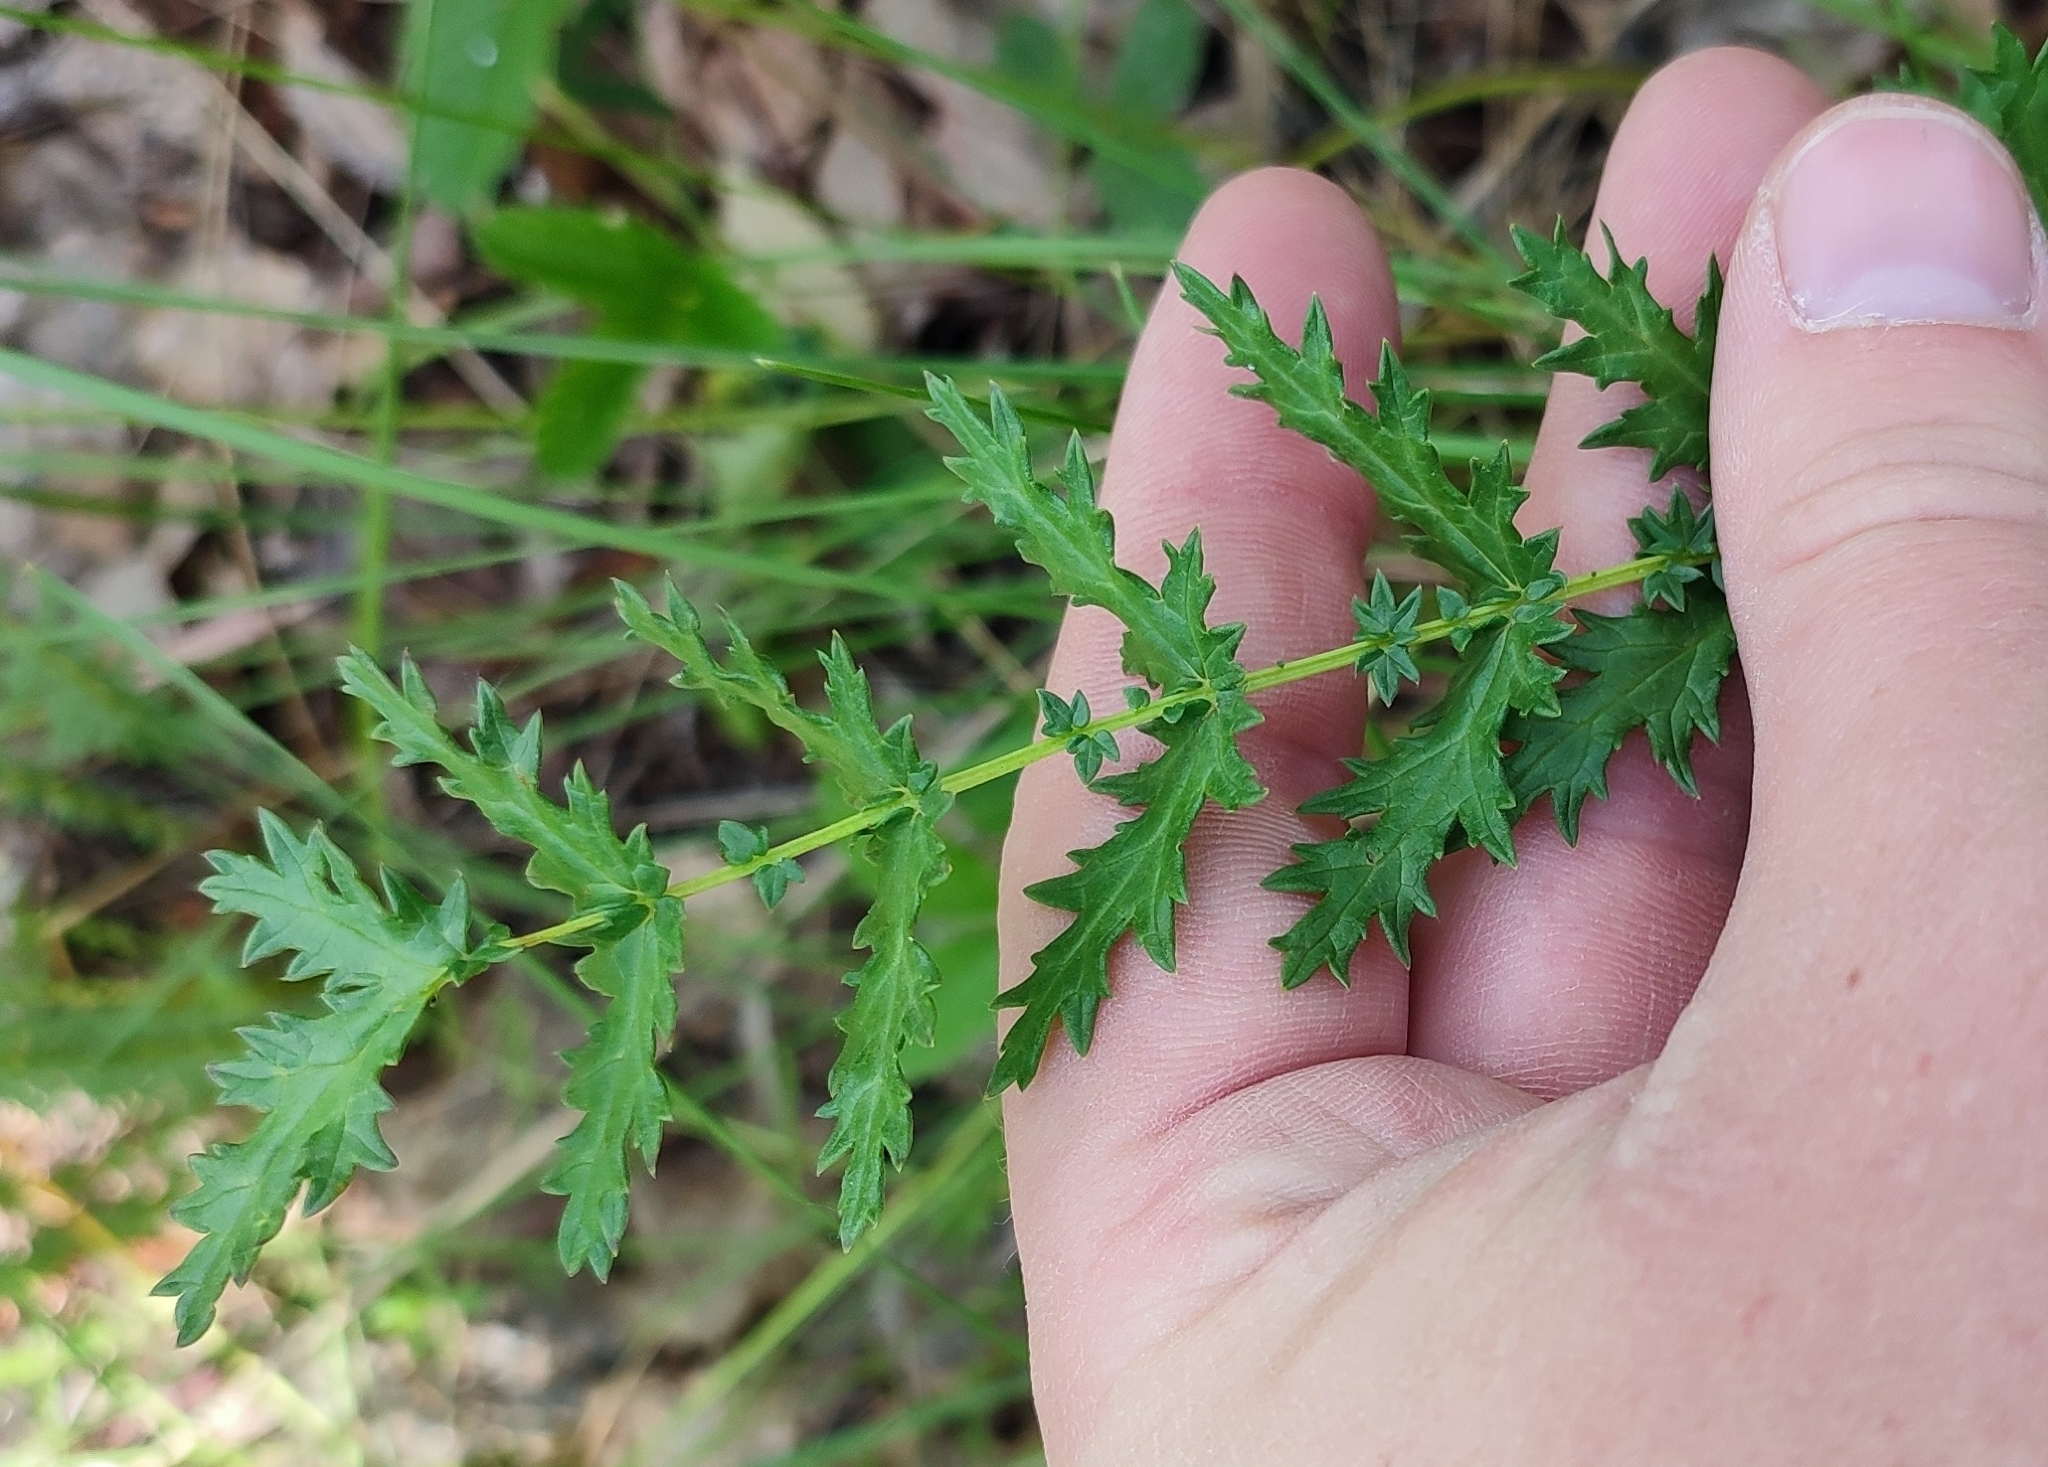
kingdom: Plantae
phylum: Tracheophyta
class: Magnoliopsida
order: Rosales
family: Rosaceae
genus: Filipendula
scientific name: Filipendula vulgaris
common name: Dropwort
